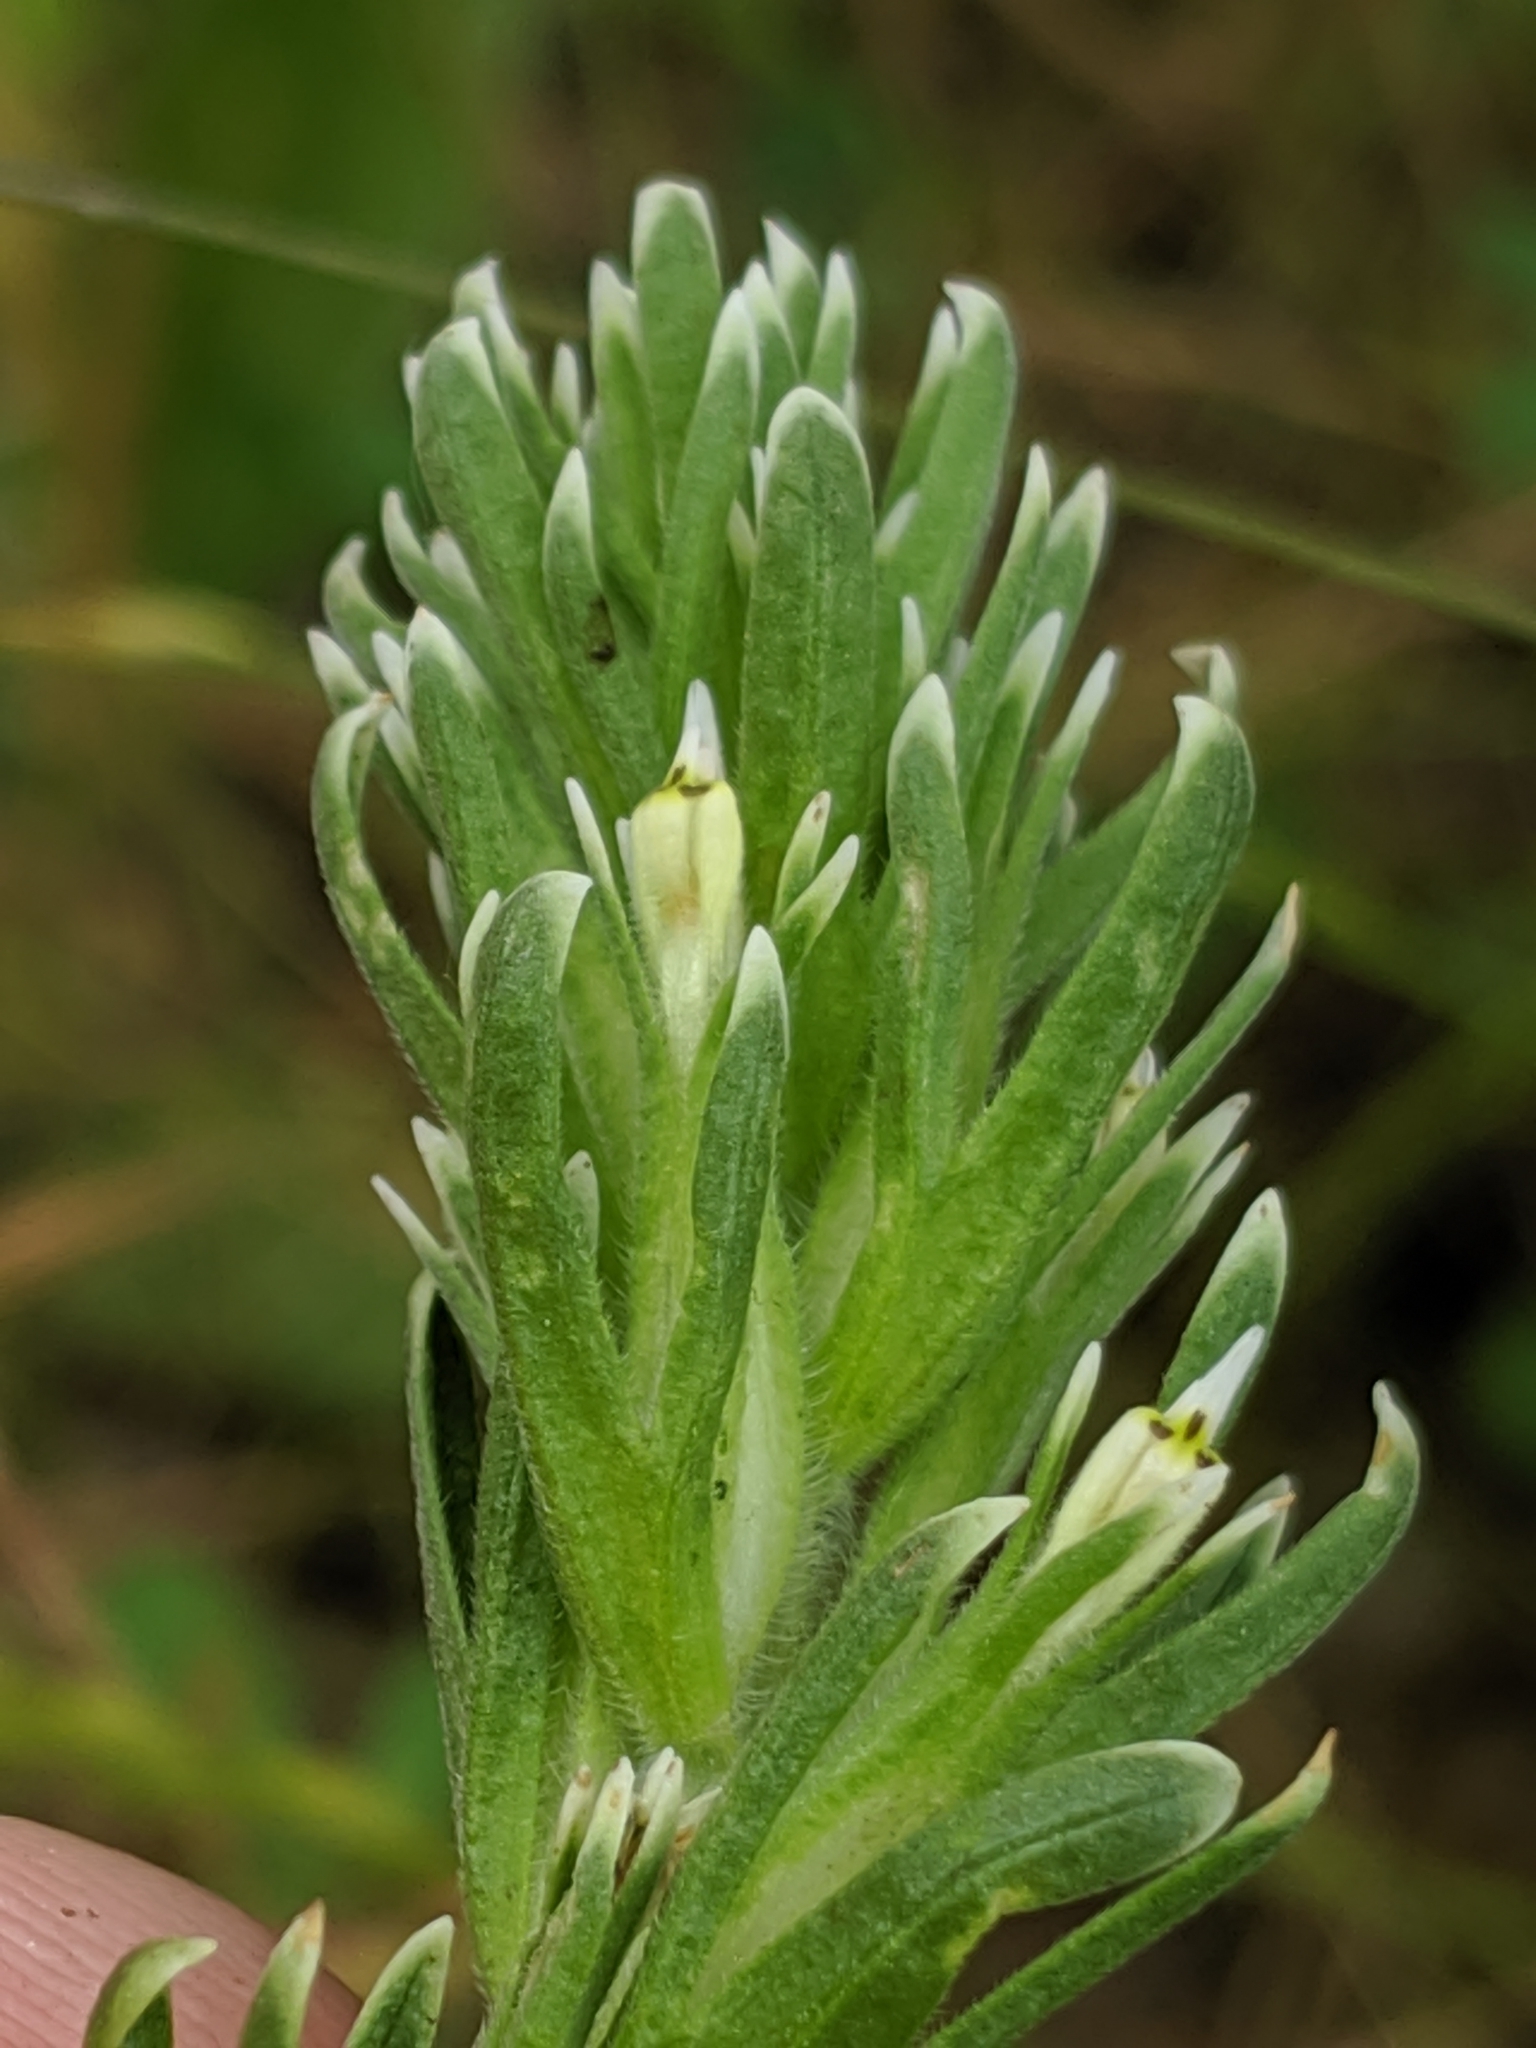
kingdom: Plantae
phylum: Tracheophyta
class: Magnoliopsida
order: Lamiales
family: Orobanchaceae
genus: Castilleja
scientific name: Castilleja attenuata
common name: Valley tassels
